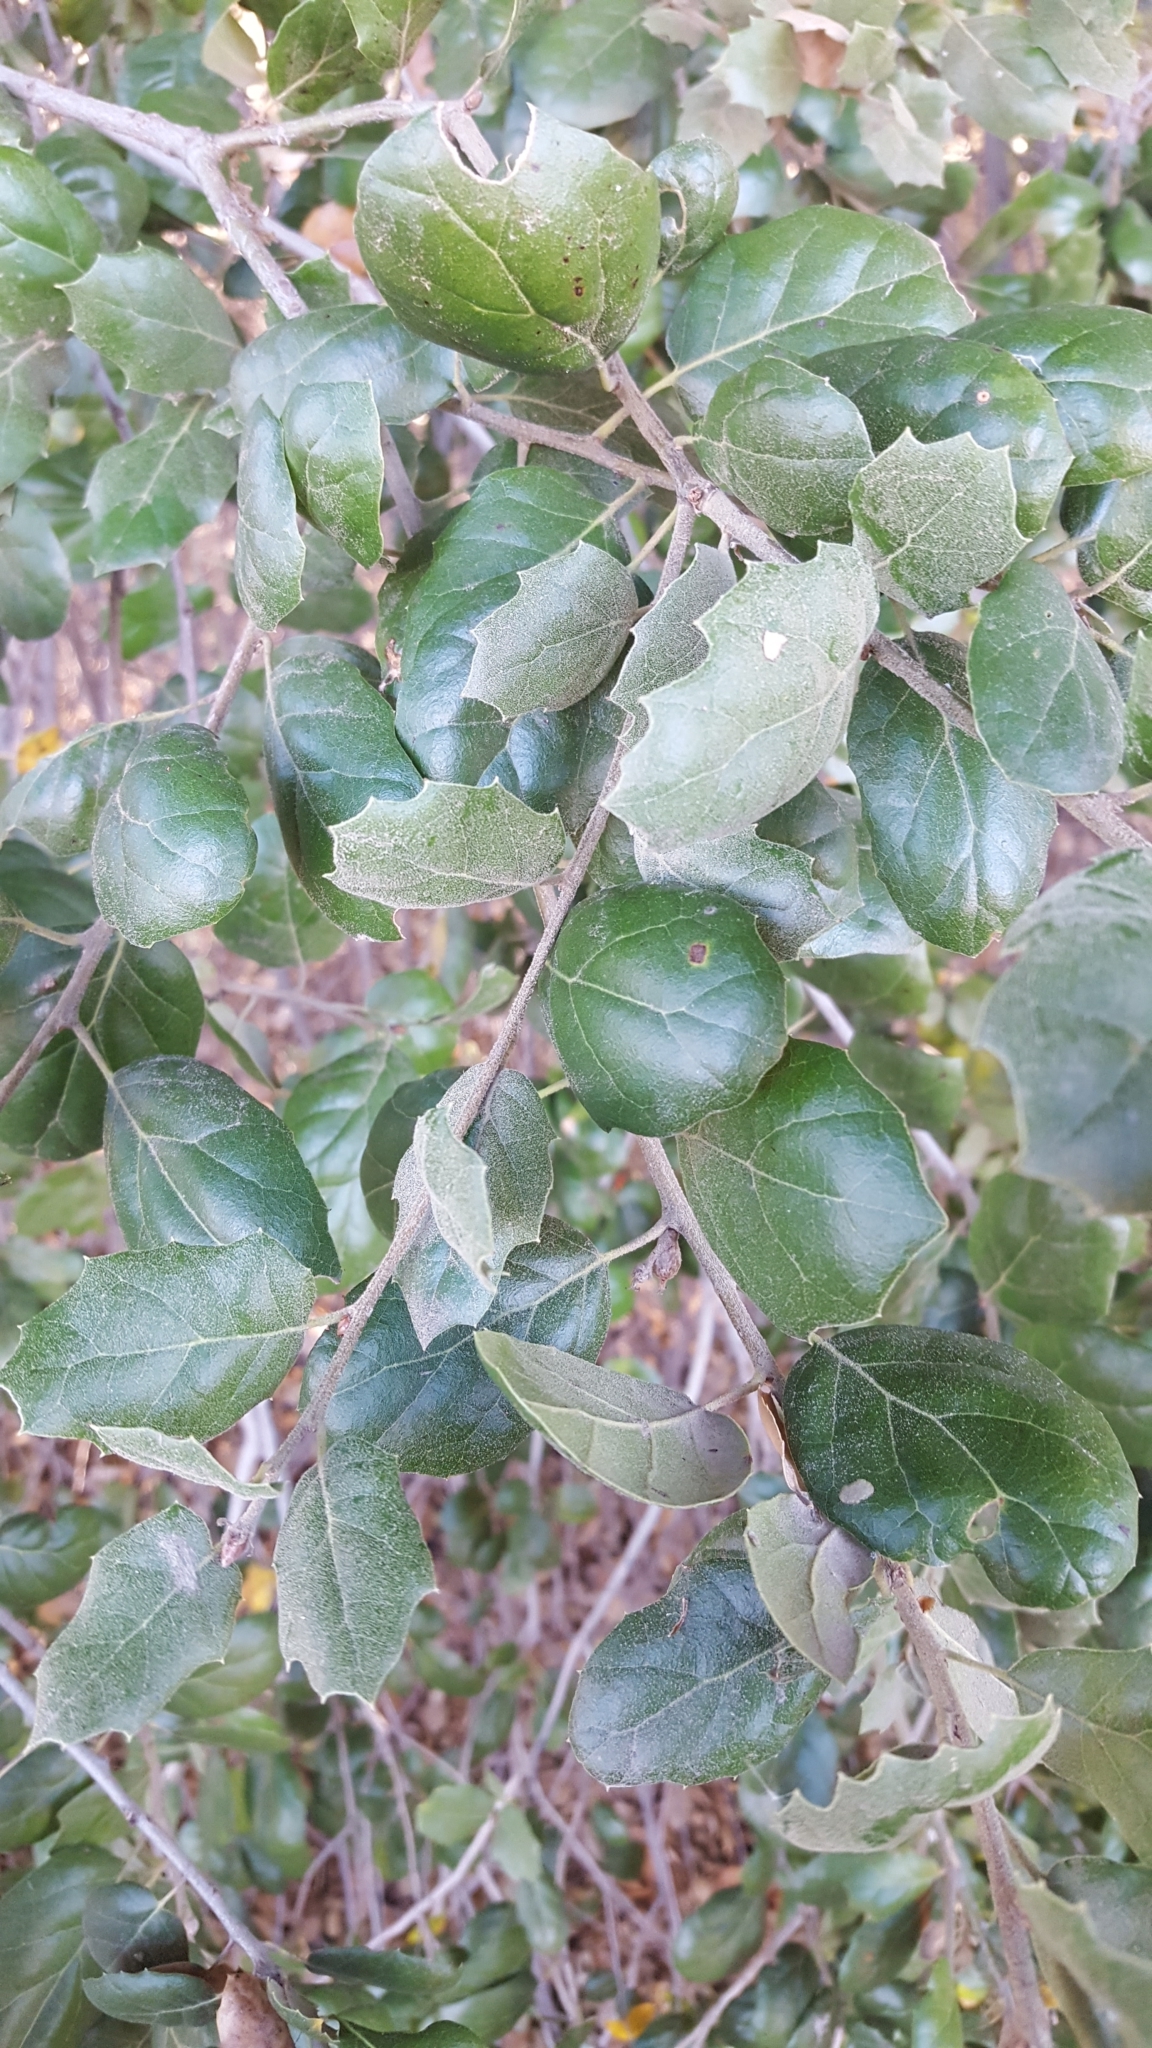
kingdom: Plantae
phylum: Tracheophyta
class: Magnoliopsida
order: Fagales
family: Fagaceae
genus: Quercus
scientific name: Quercus agrifolia
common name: California live oak
